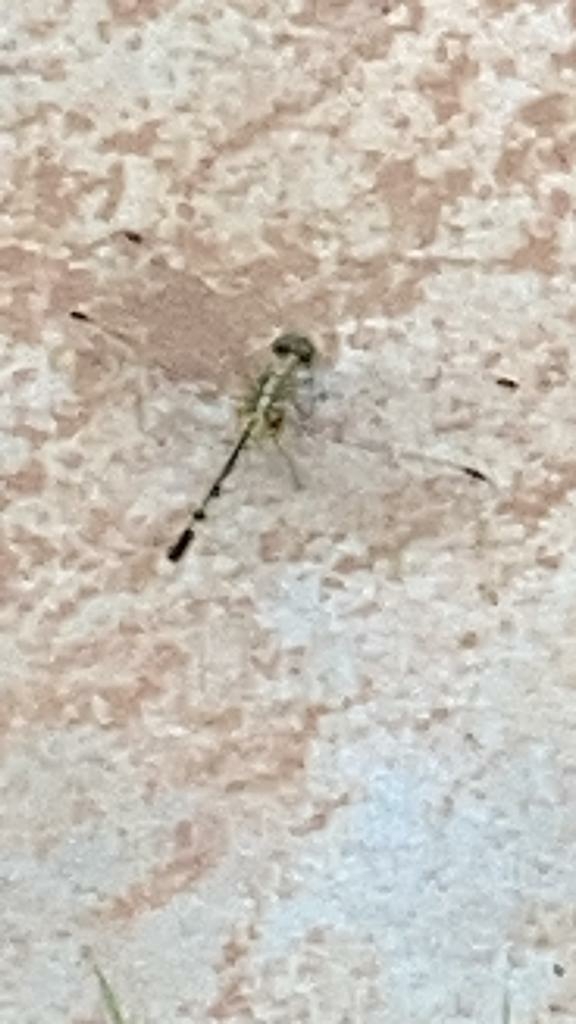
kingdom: Animalia
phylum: Arthropoda
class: Insecta
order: Odonata
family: Libellulidae
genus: Diplacodes
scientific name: Diplacodes trivialis
